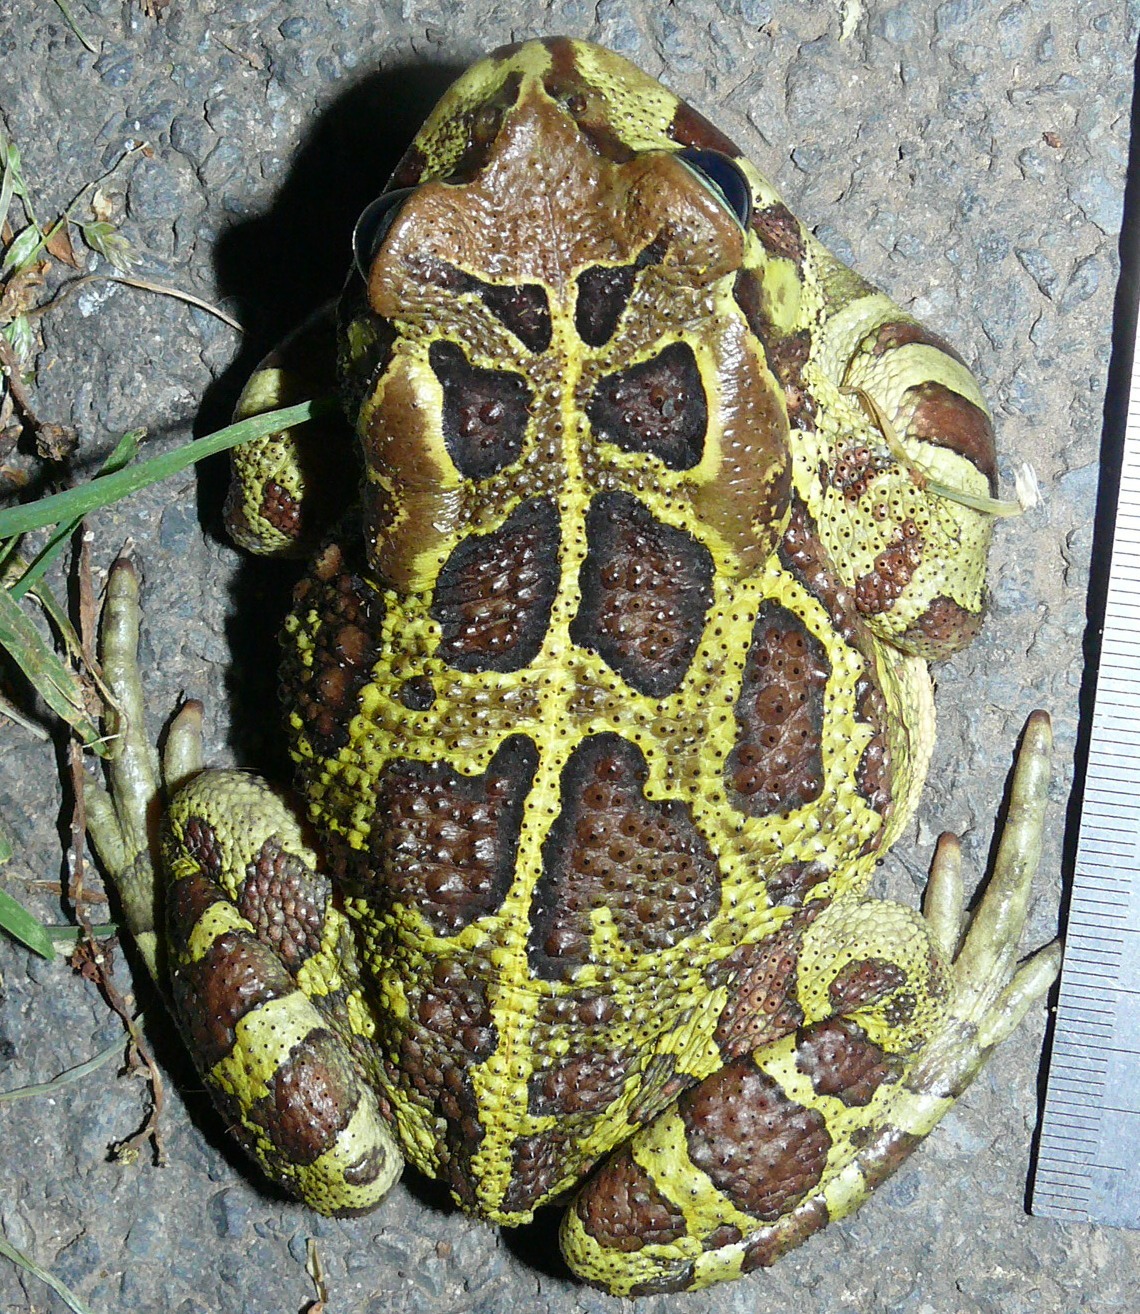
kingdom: Animalia
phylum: Chordata
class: Amphibia
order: Anura
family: Bufonidae
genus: Sclerophrys
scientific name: Sclerophrys pantherina
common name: Panther toad
